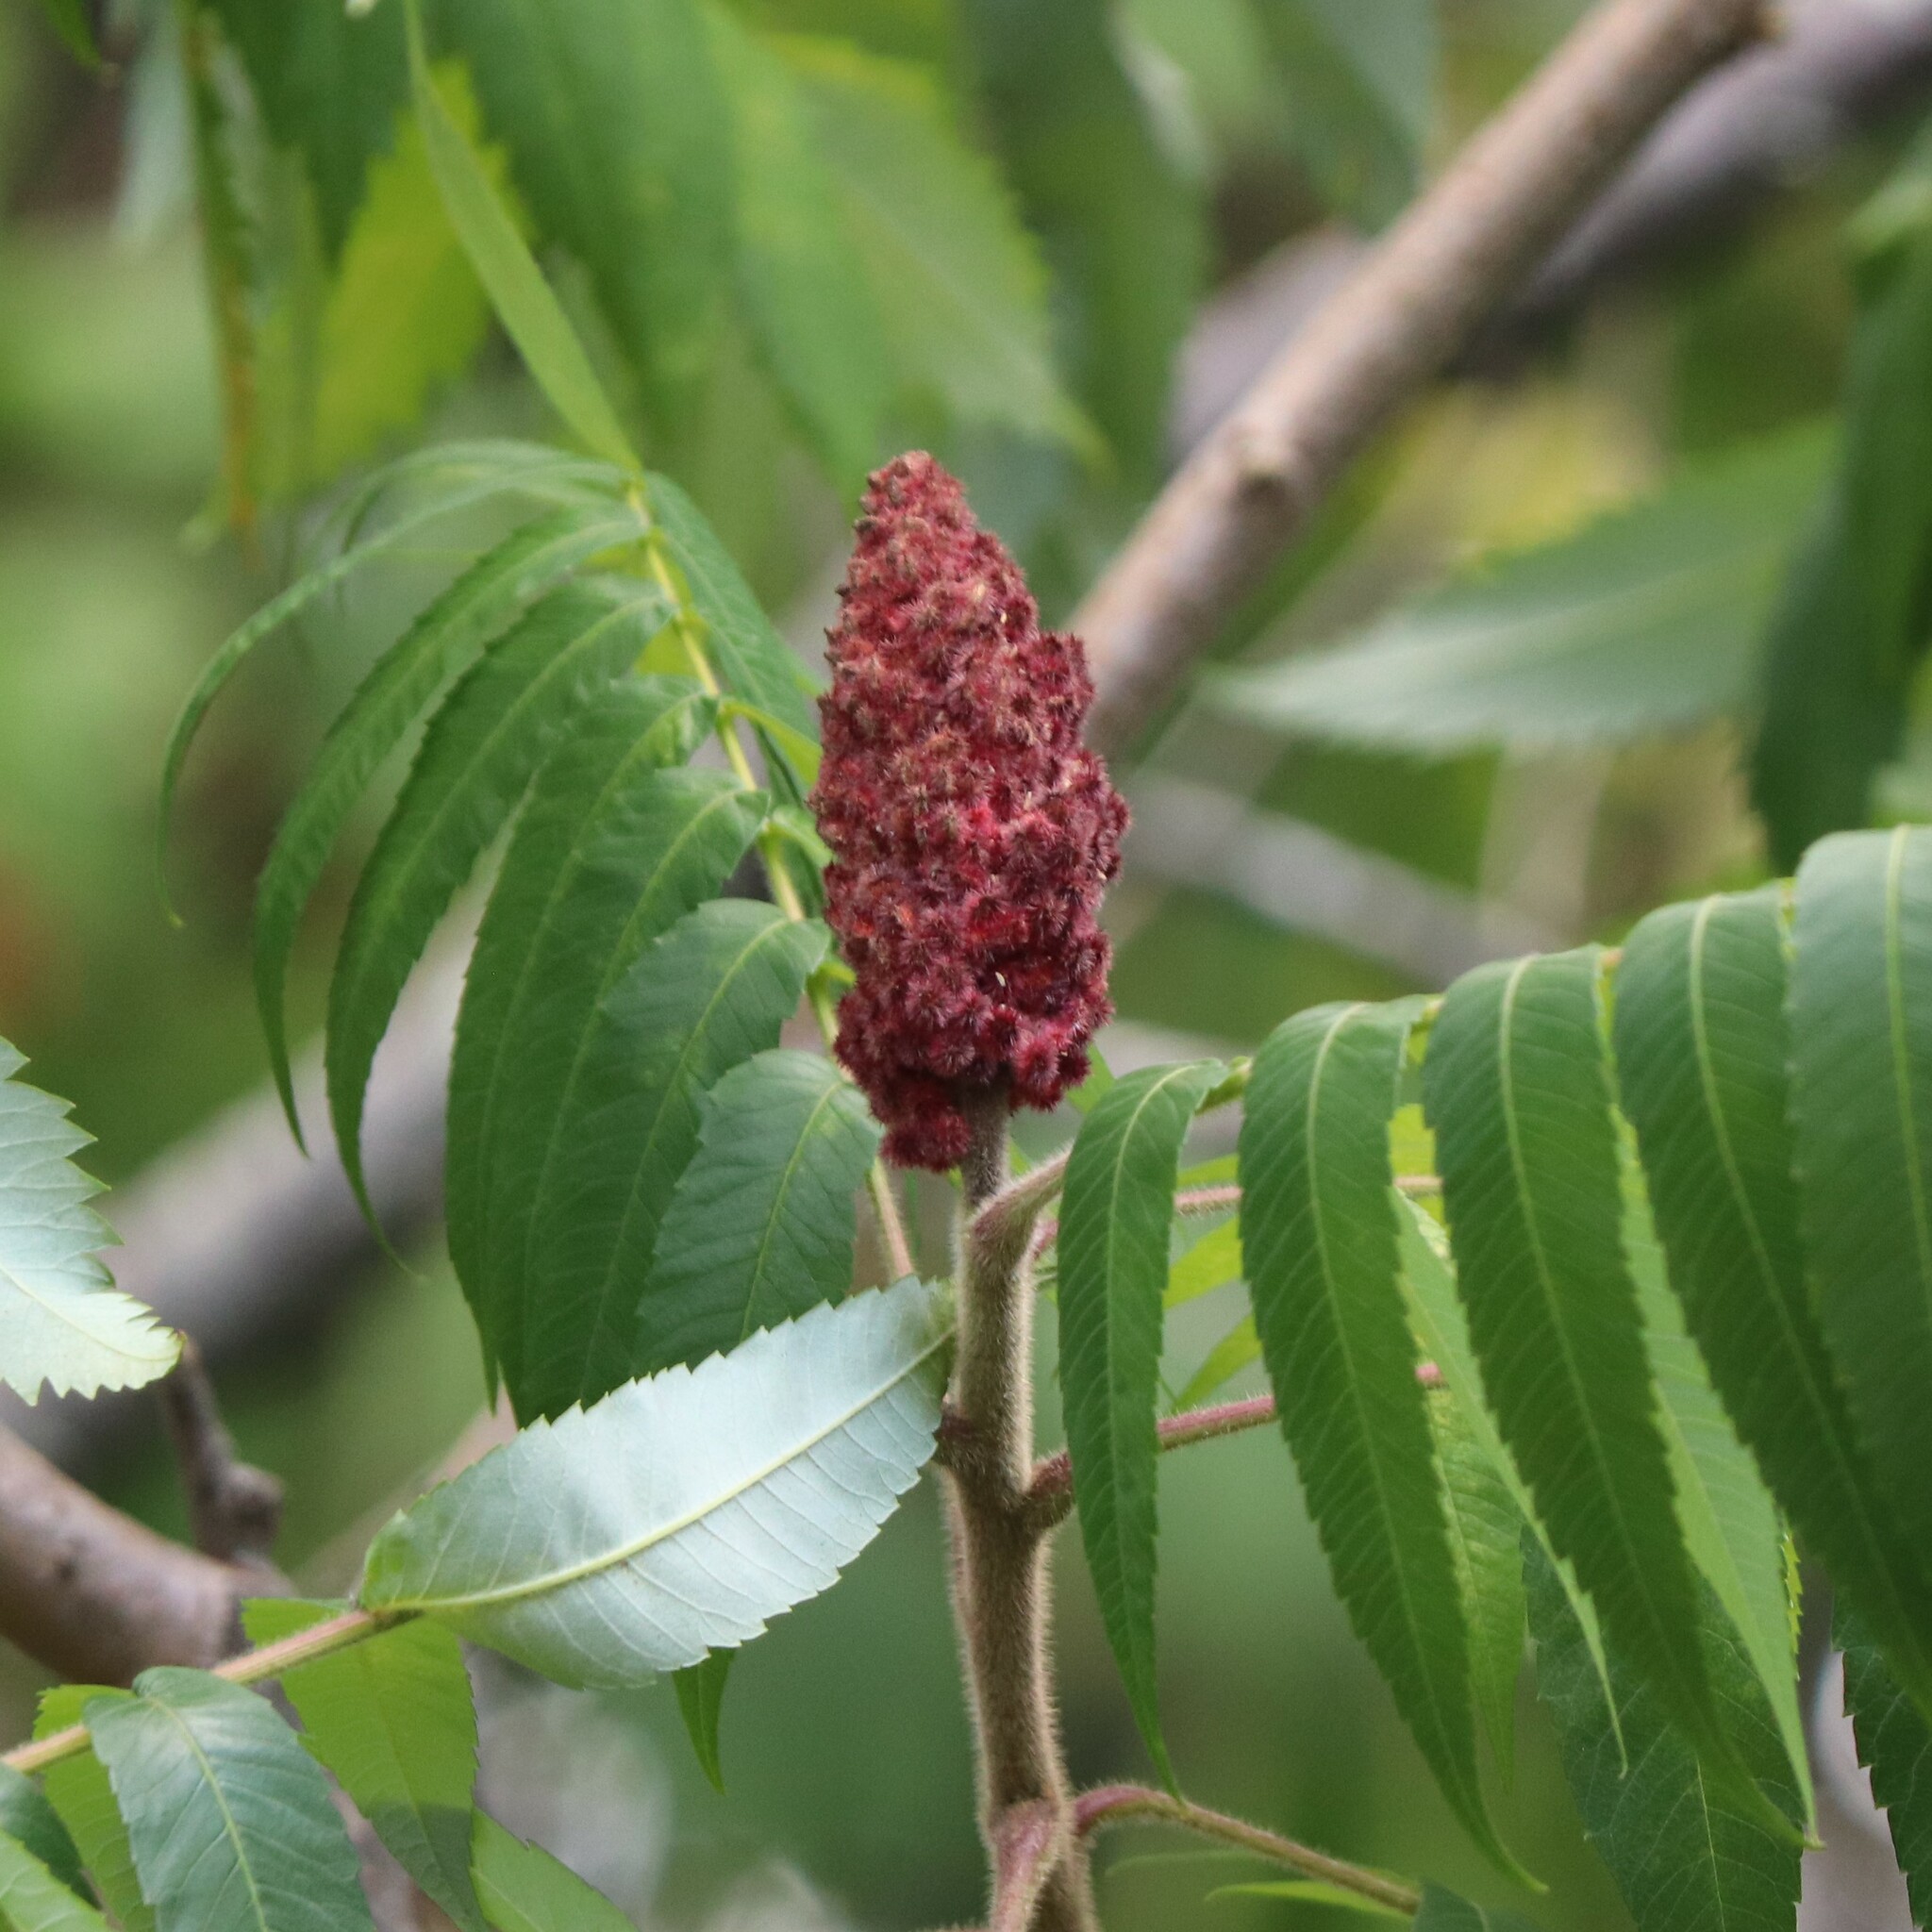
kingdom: Plantae
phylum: Tracheophyta
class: Magnoliopsida
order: Sapindales
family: Anacardiaceae
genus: Rhus
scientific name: Rhus typhina
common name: Staghorn sumac
